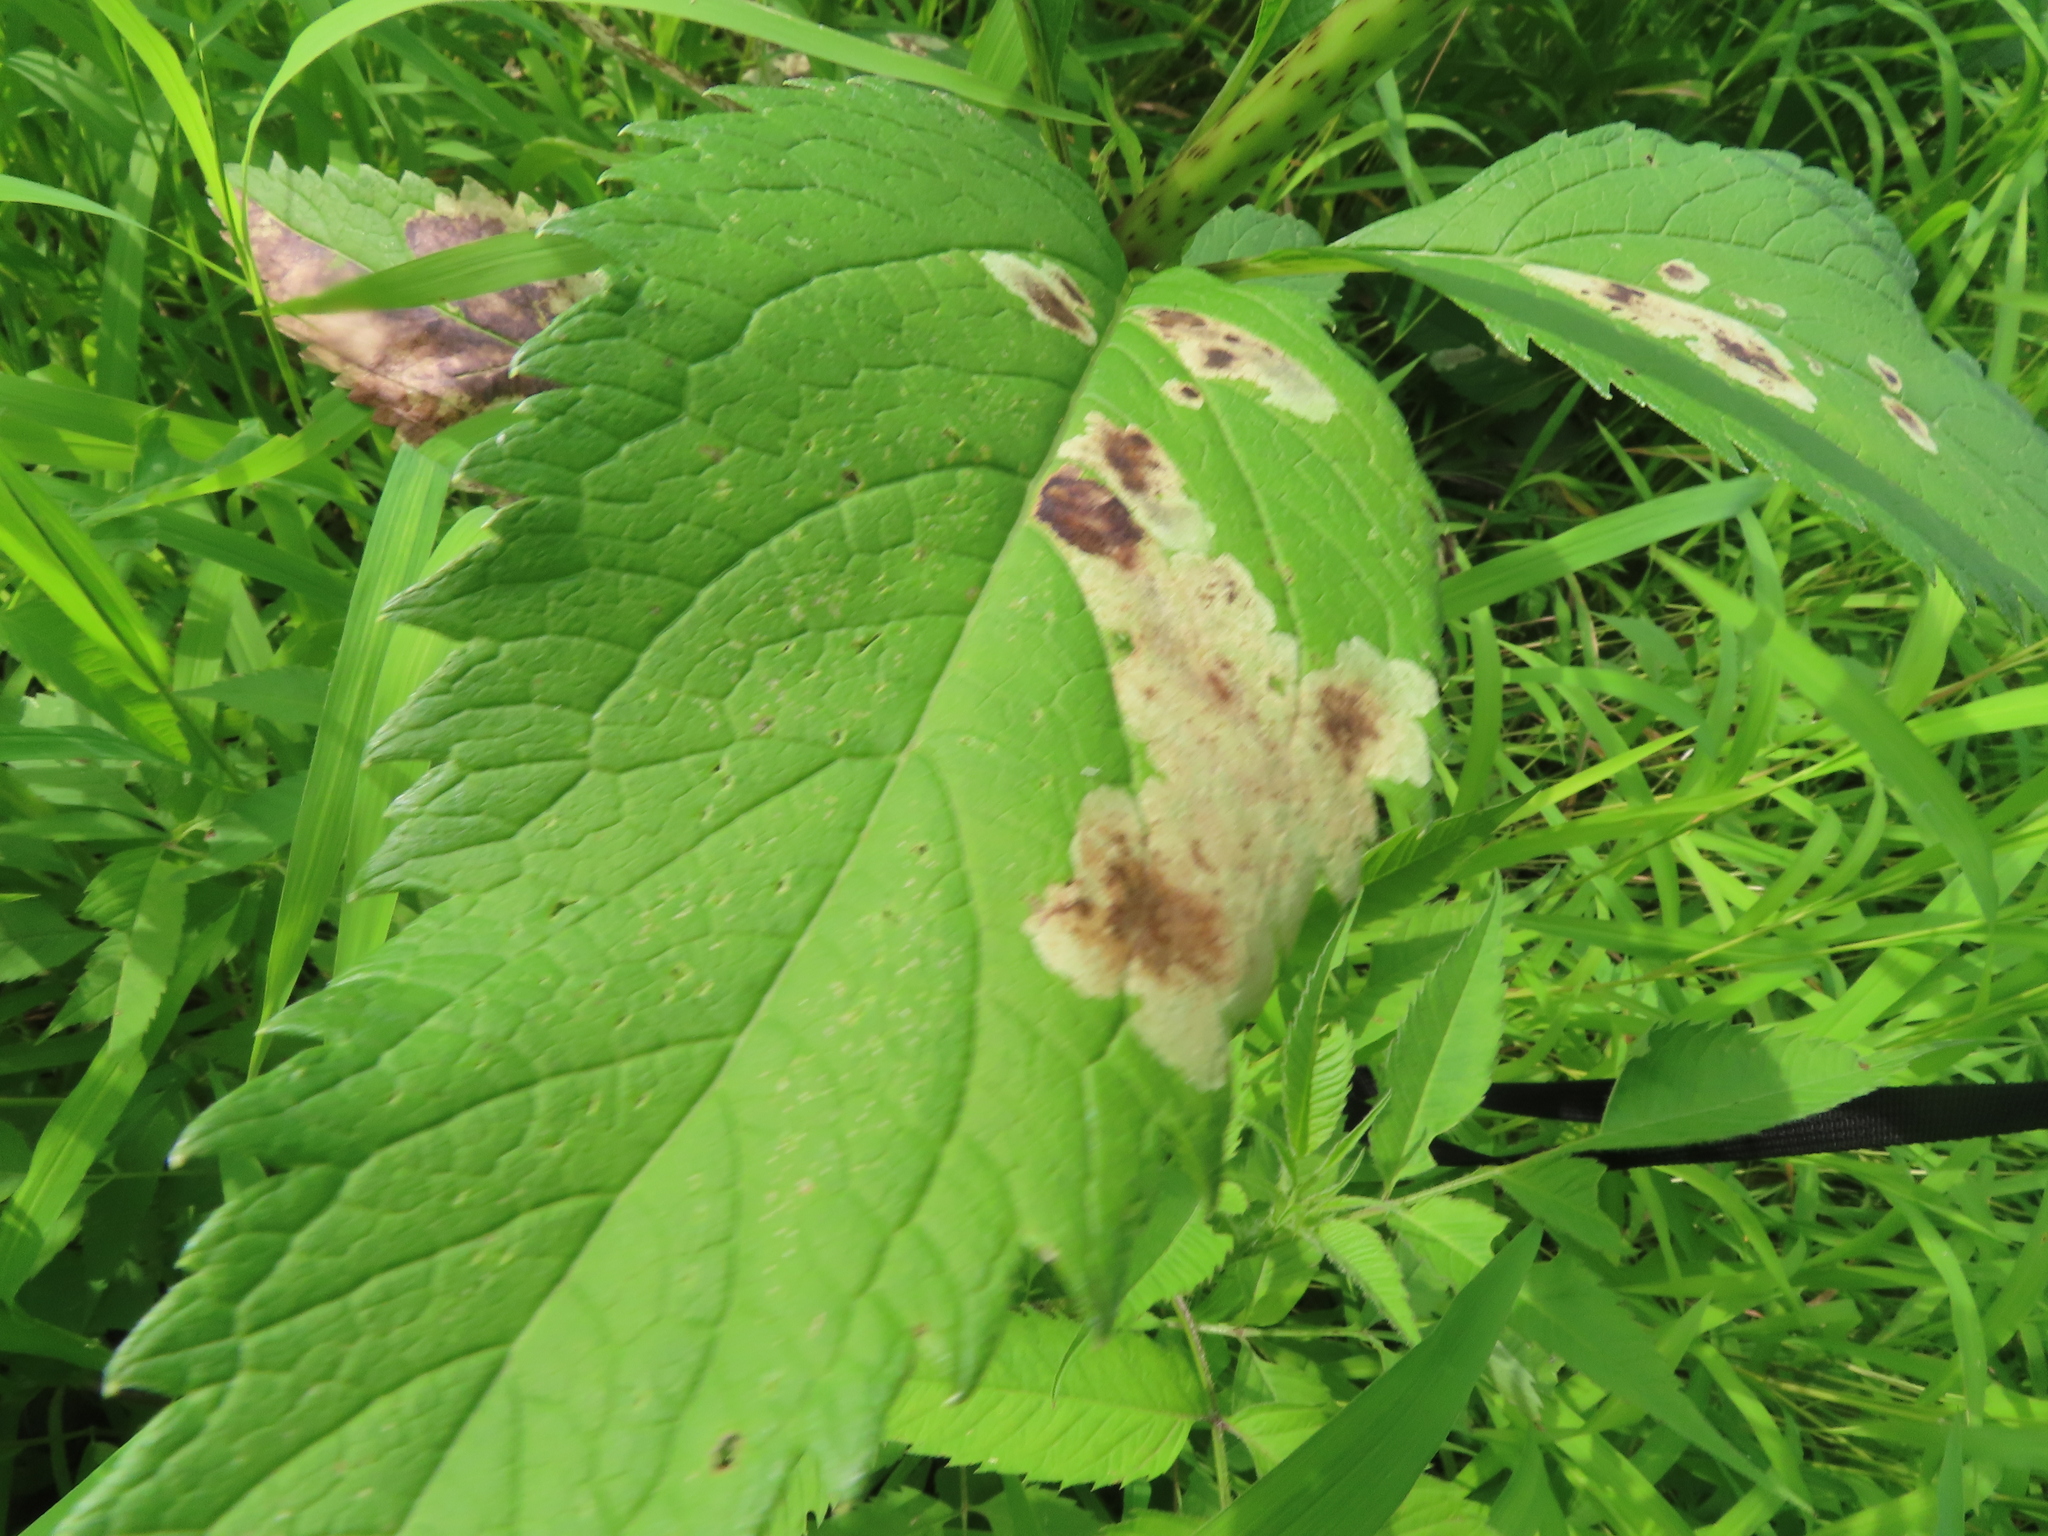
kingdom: Animalia
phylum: Arthropoda
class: Insecta
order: Diptera
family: Agromyzidae
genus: Calycomyza
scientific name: Calycomyza flavinotum
